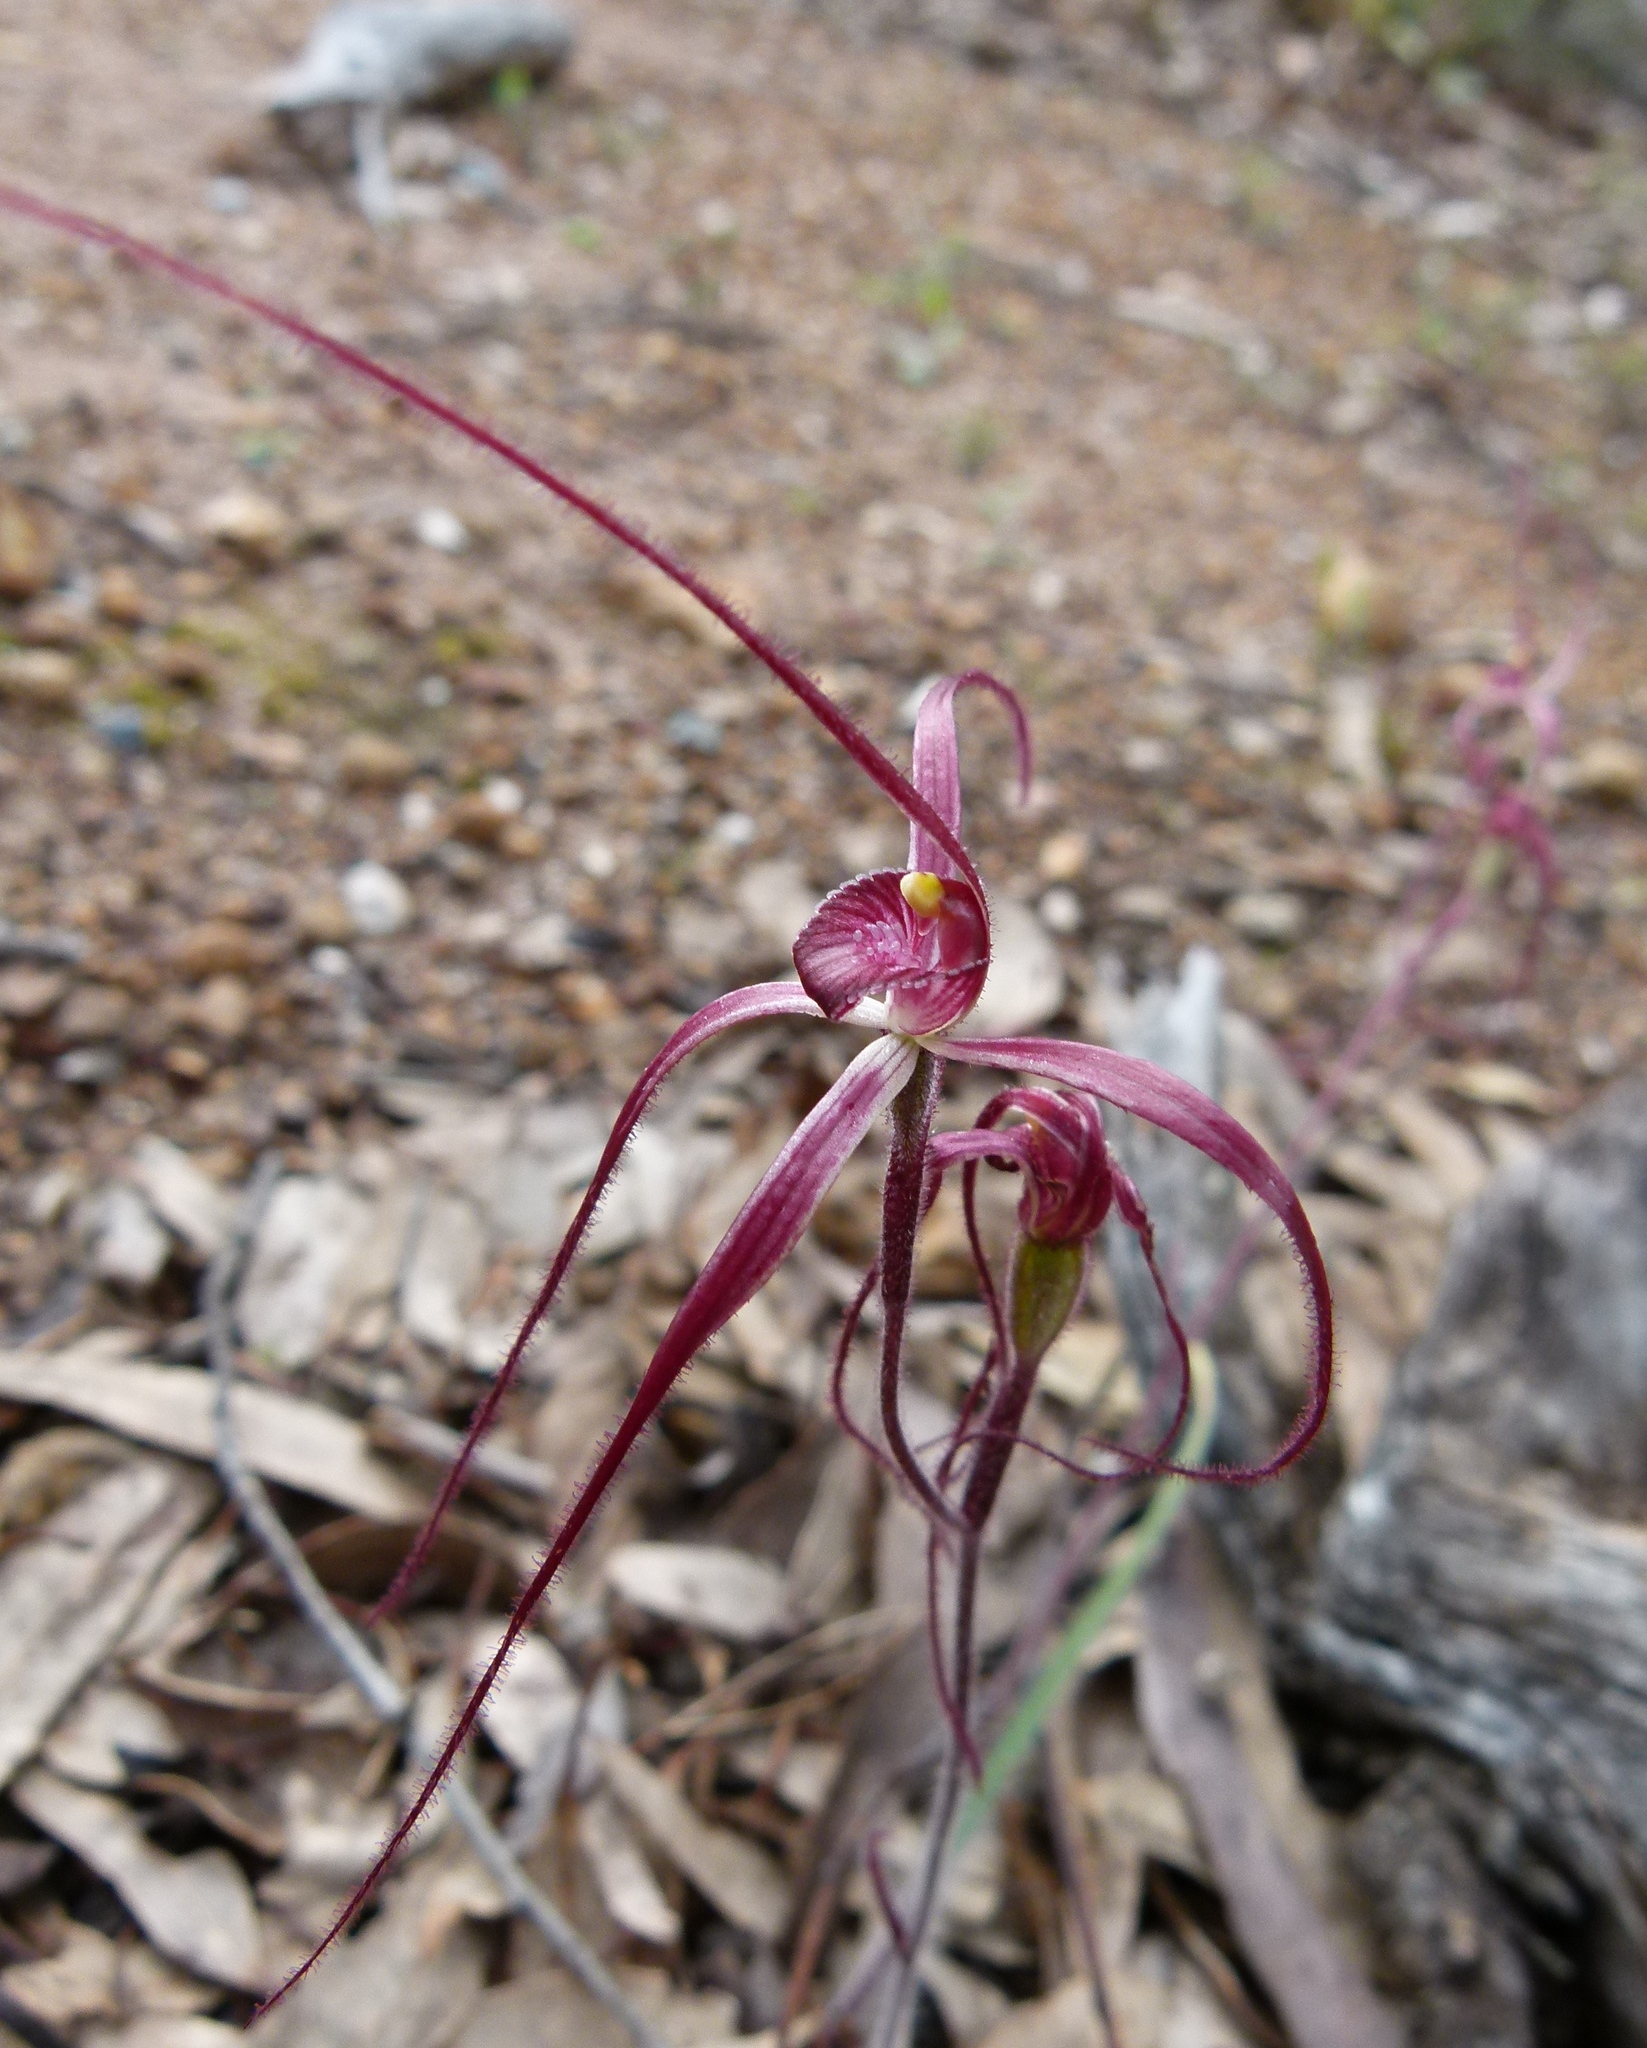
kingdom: Plantae
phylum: Tracheophyta
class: Liliopsida
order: Asparagales
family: Orchidaceae
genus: Caladenia
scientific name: Caladenia filifera
